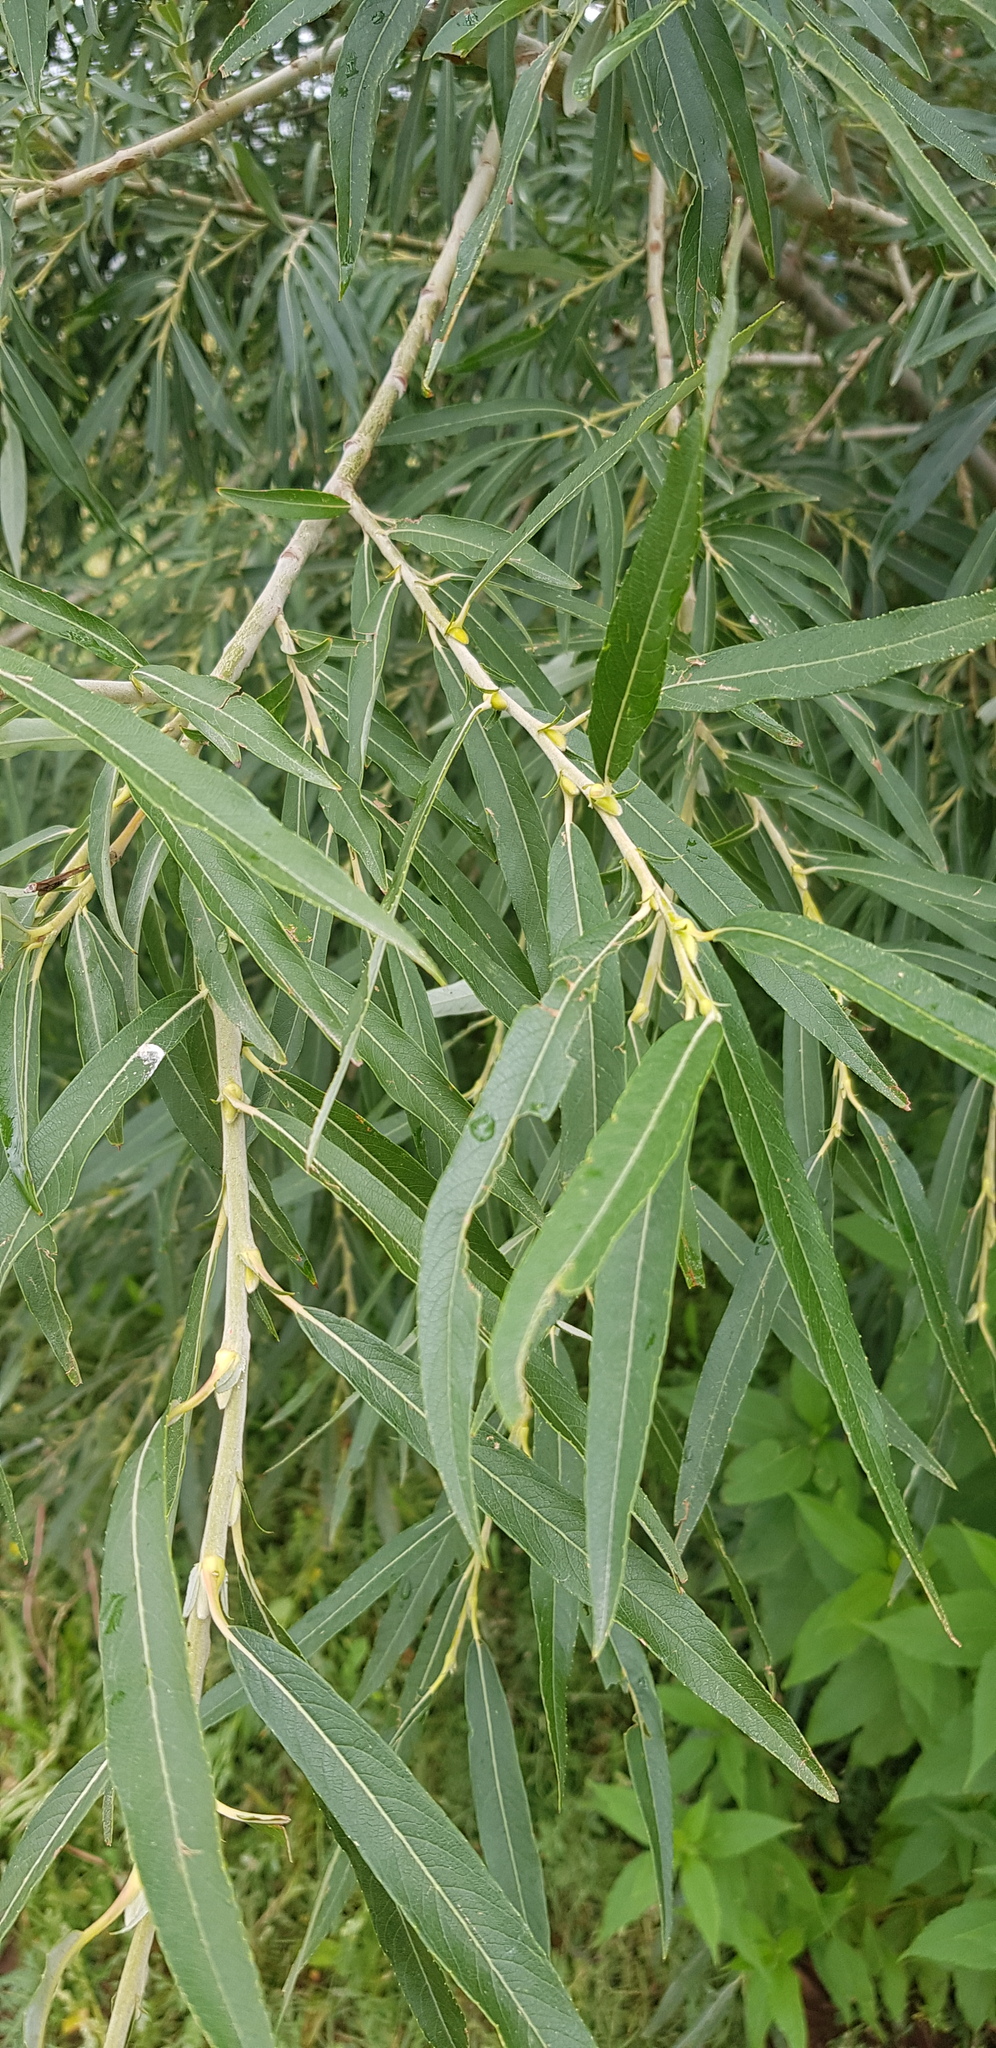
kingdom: Plantae
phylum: Tracheophyta
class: Magnoliopsida
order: Malpighiales
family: Salicaceae
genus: Salix
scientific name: Salix viminalis
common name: Osier
